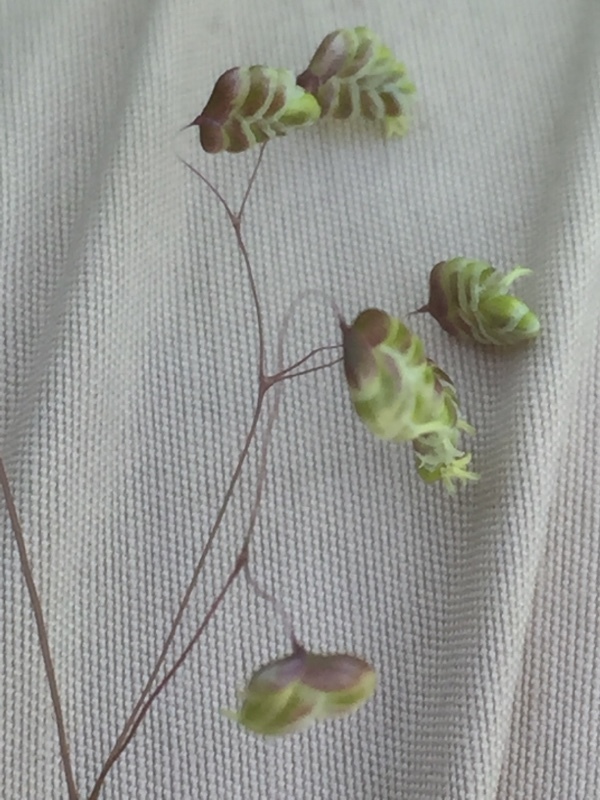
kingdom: Plantae
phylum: Tracheophyta
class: Liliopsida
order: Poales
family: Poaceae
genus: Briza
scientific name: Briza media
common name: Quaking grass
